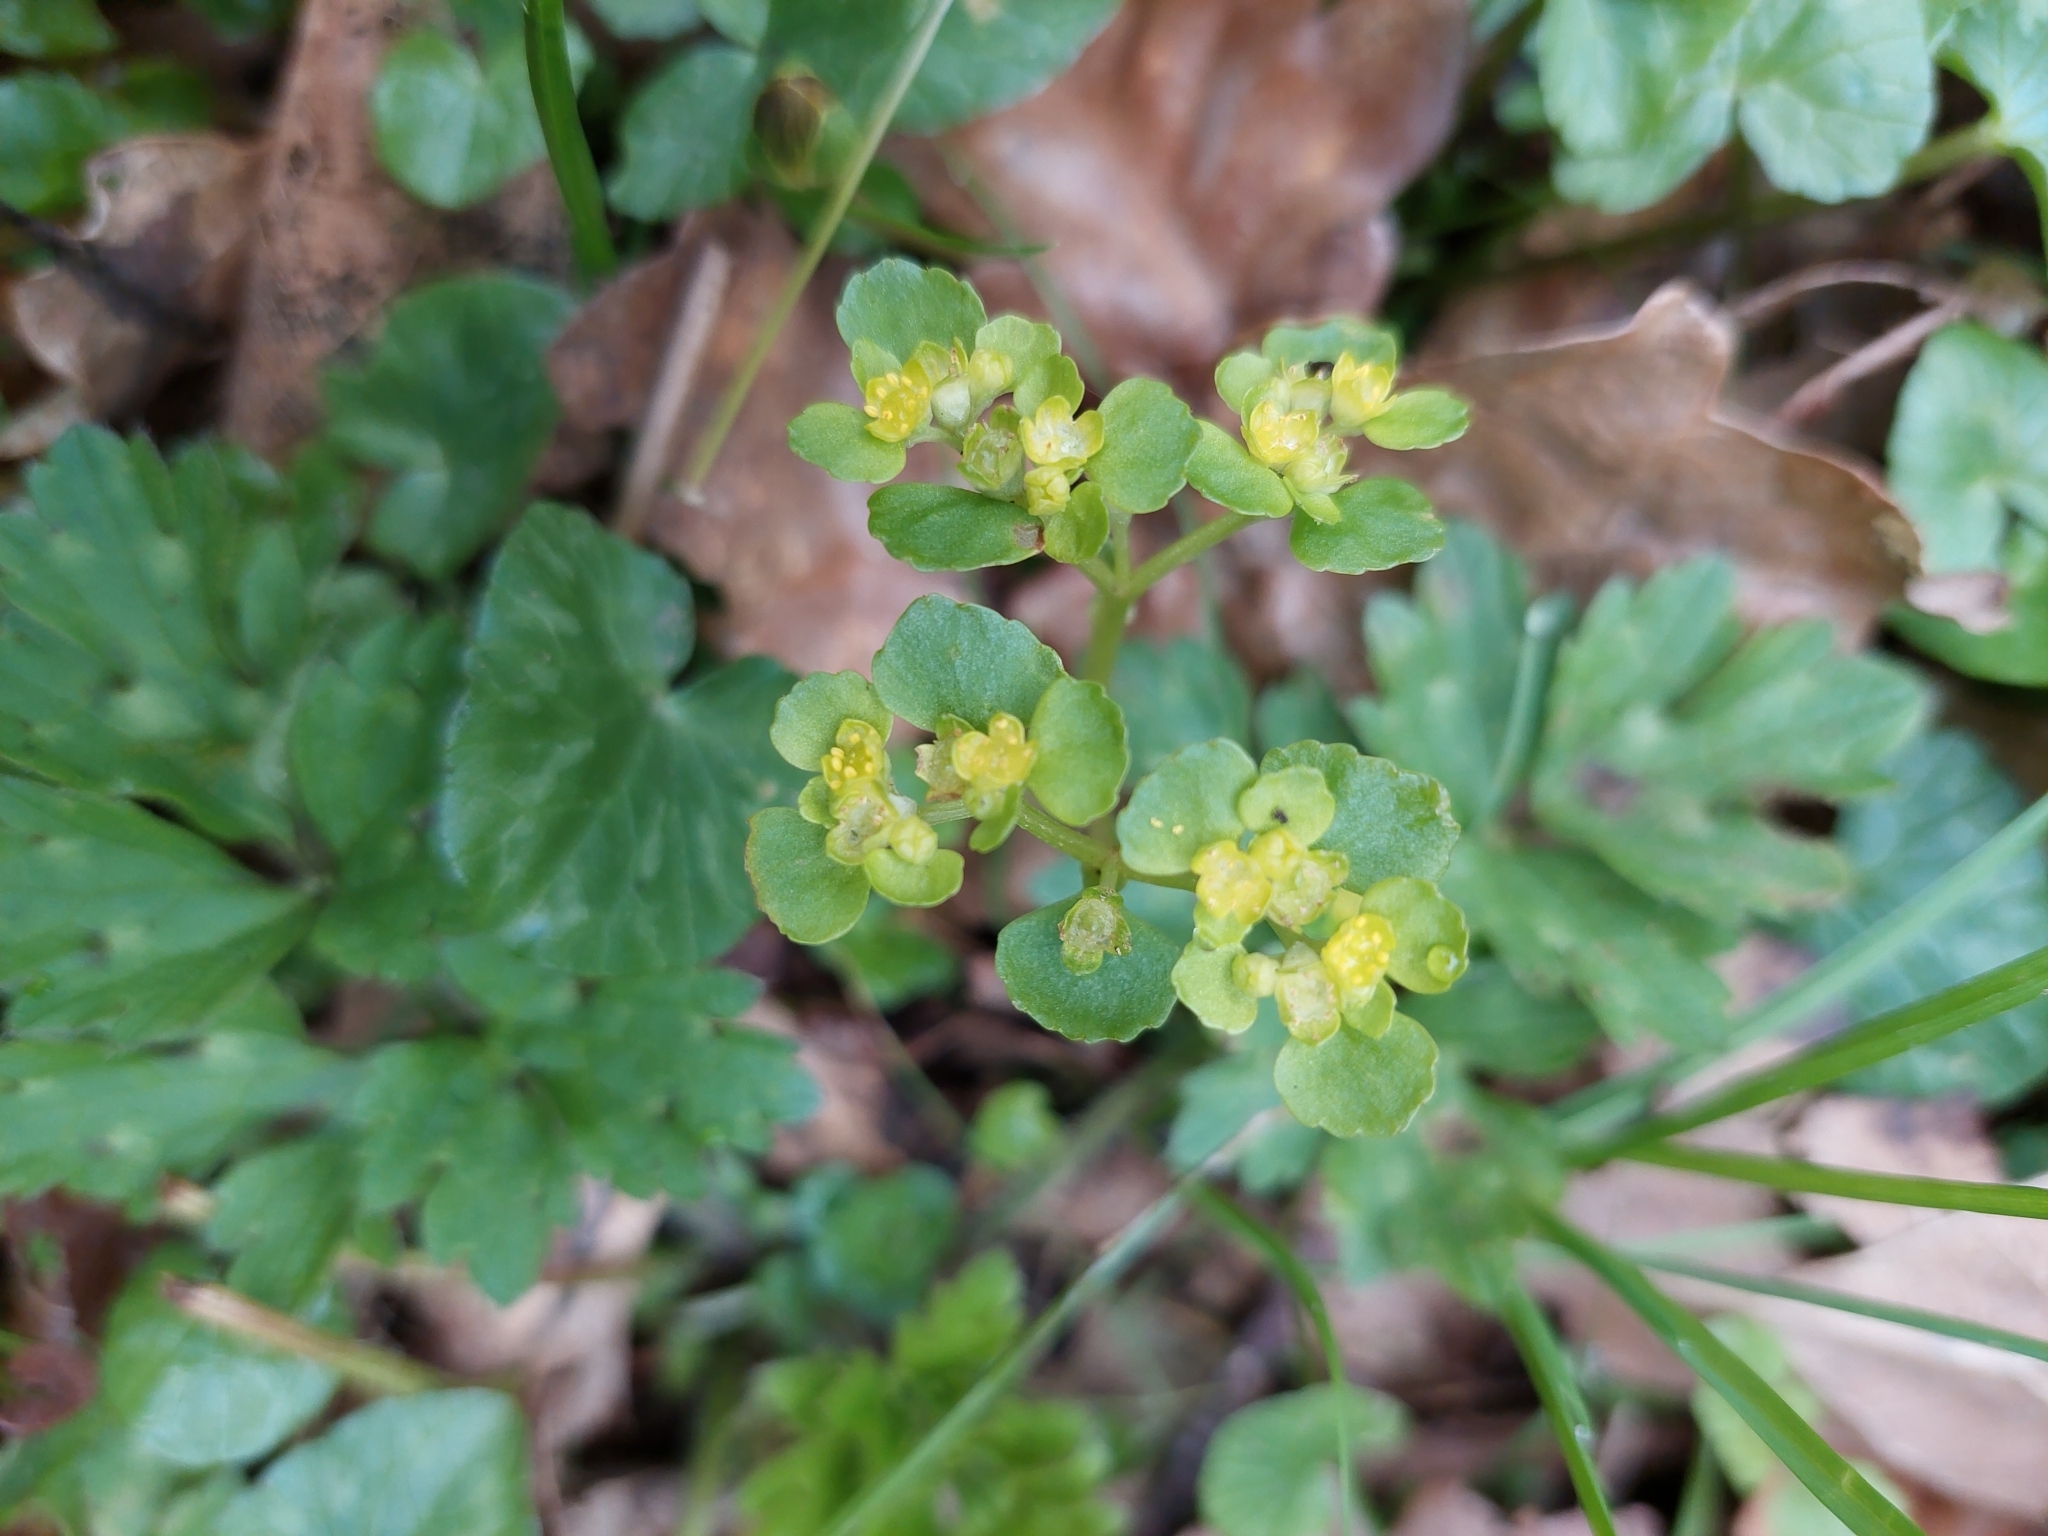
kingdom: Plantae
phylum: Tracheophyta
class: Magnoliopsida
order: Saxifragales
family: Saxifragaceae
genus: Chrysosplenium
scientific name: Chrysosplenium oppositifolium
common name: Opposite-leaved golden-saxifrage
